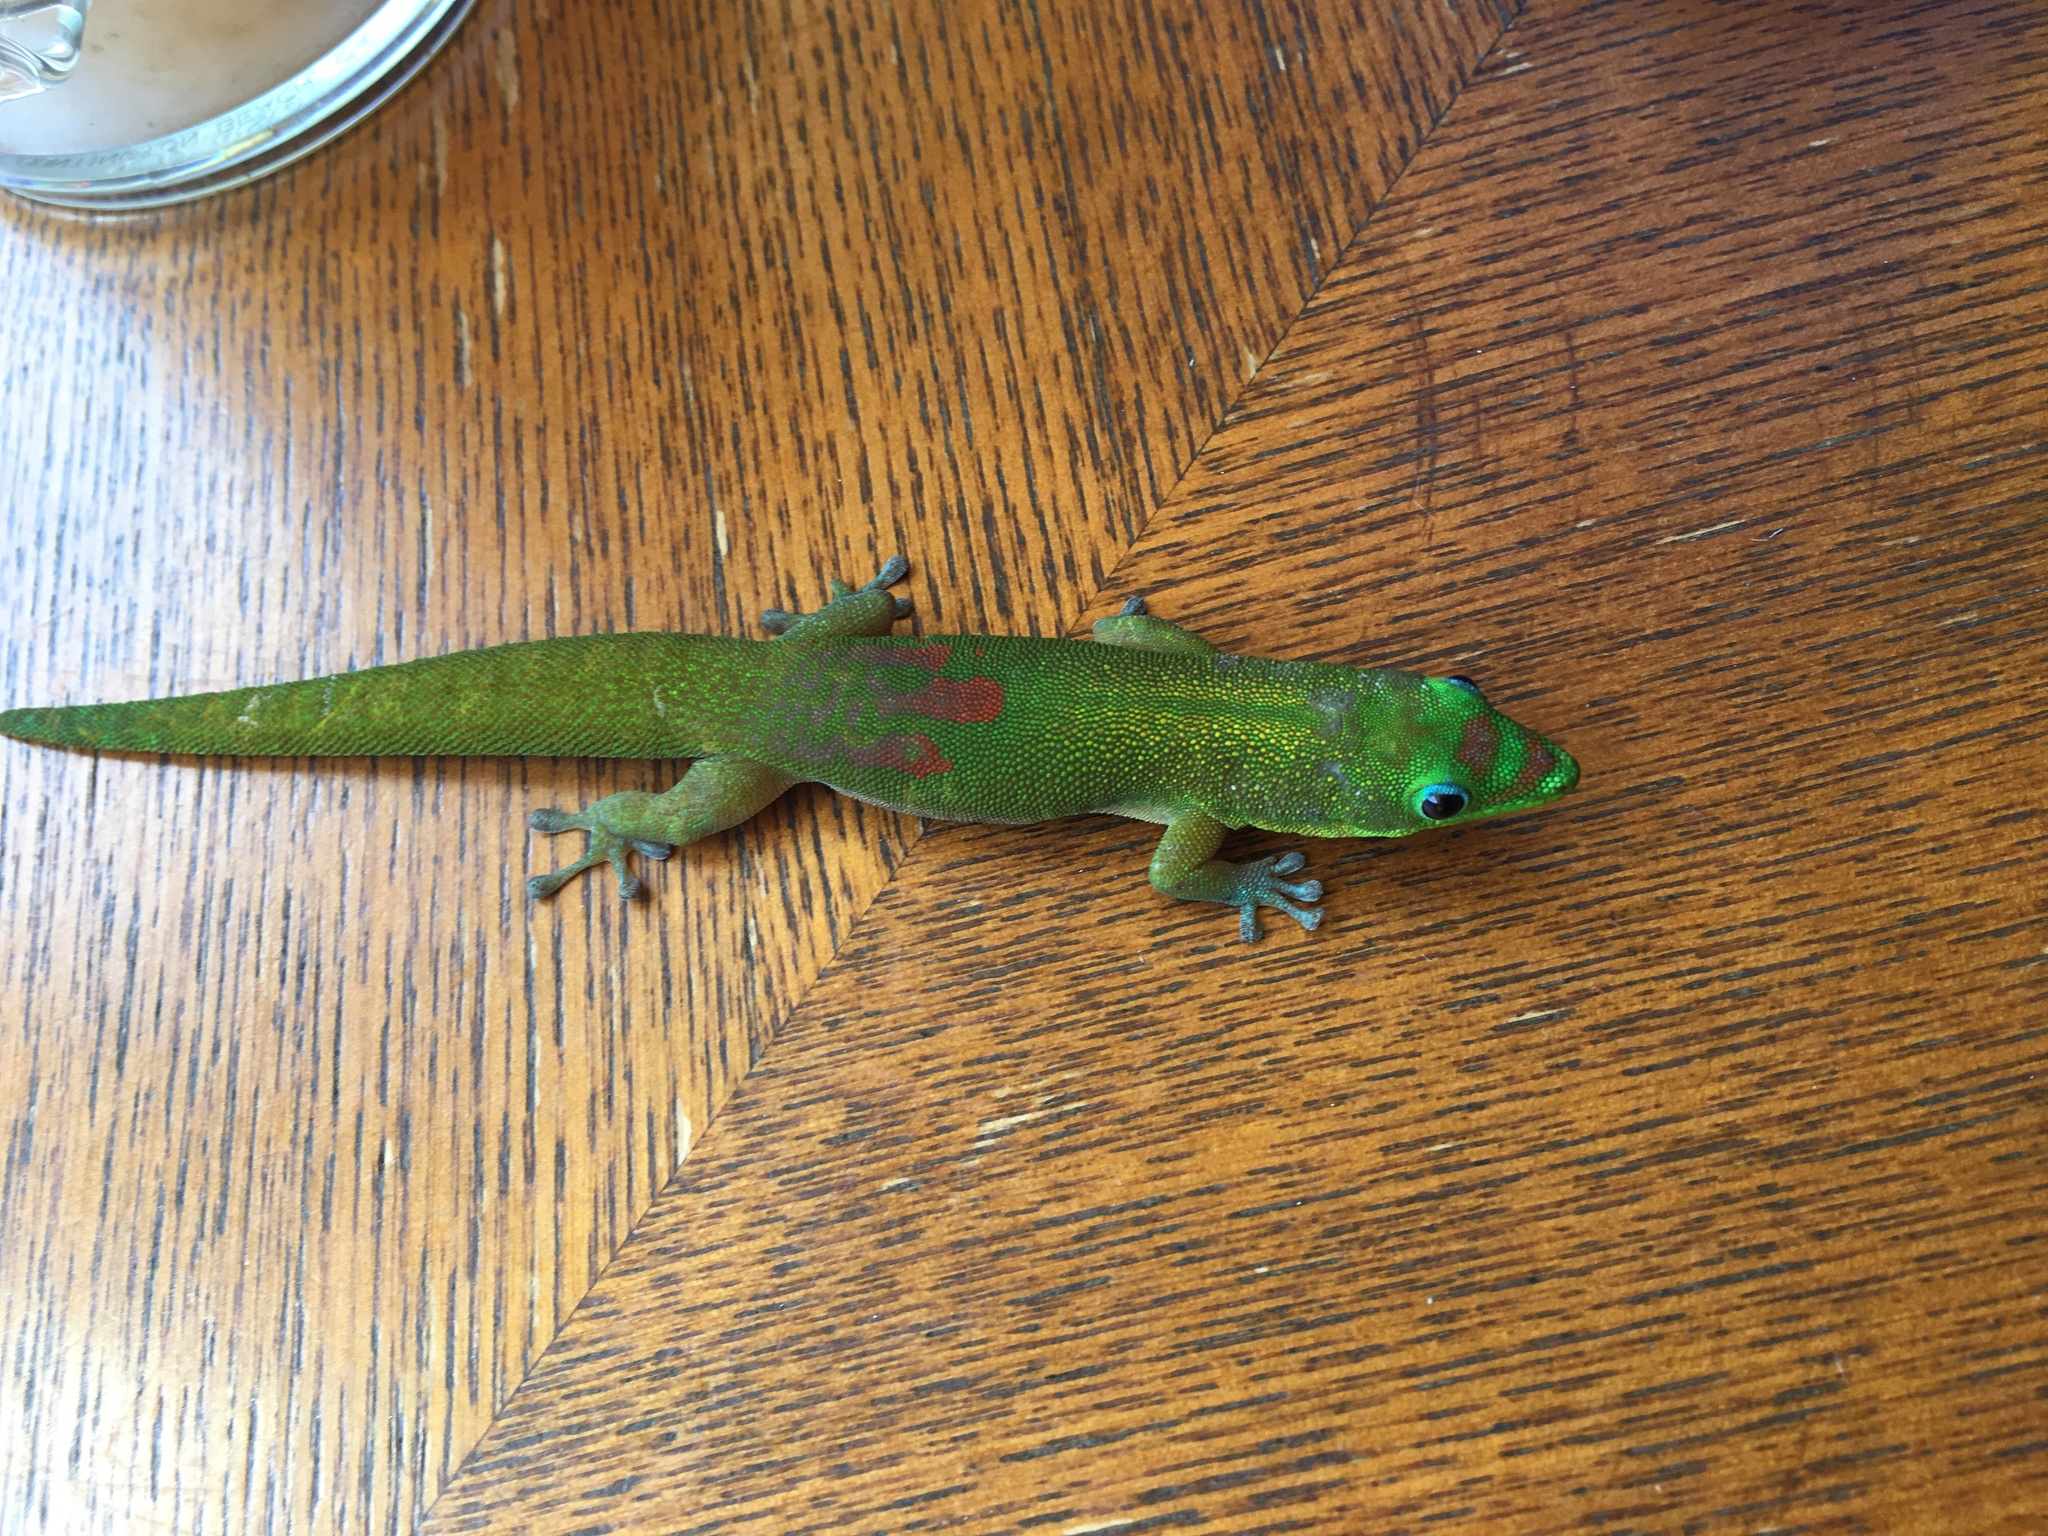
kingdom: Animalia
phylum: Chordata
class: Squamata
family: Gekkonidae
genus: Phelsuma
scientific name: Phelsuma laticauda
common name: Gold dust day gecko
